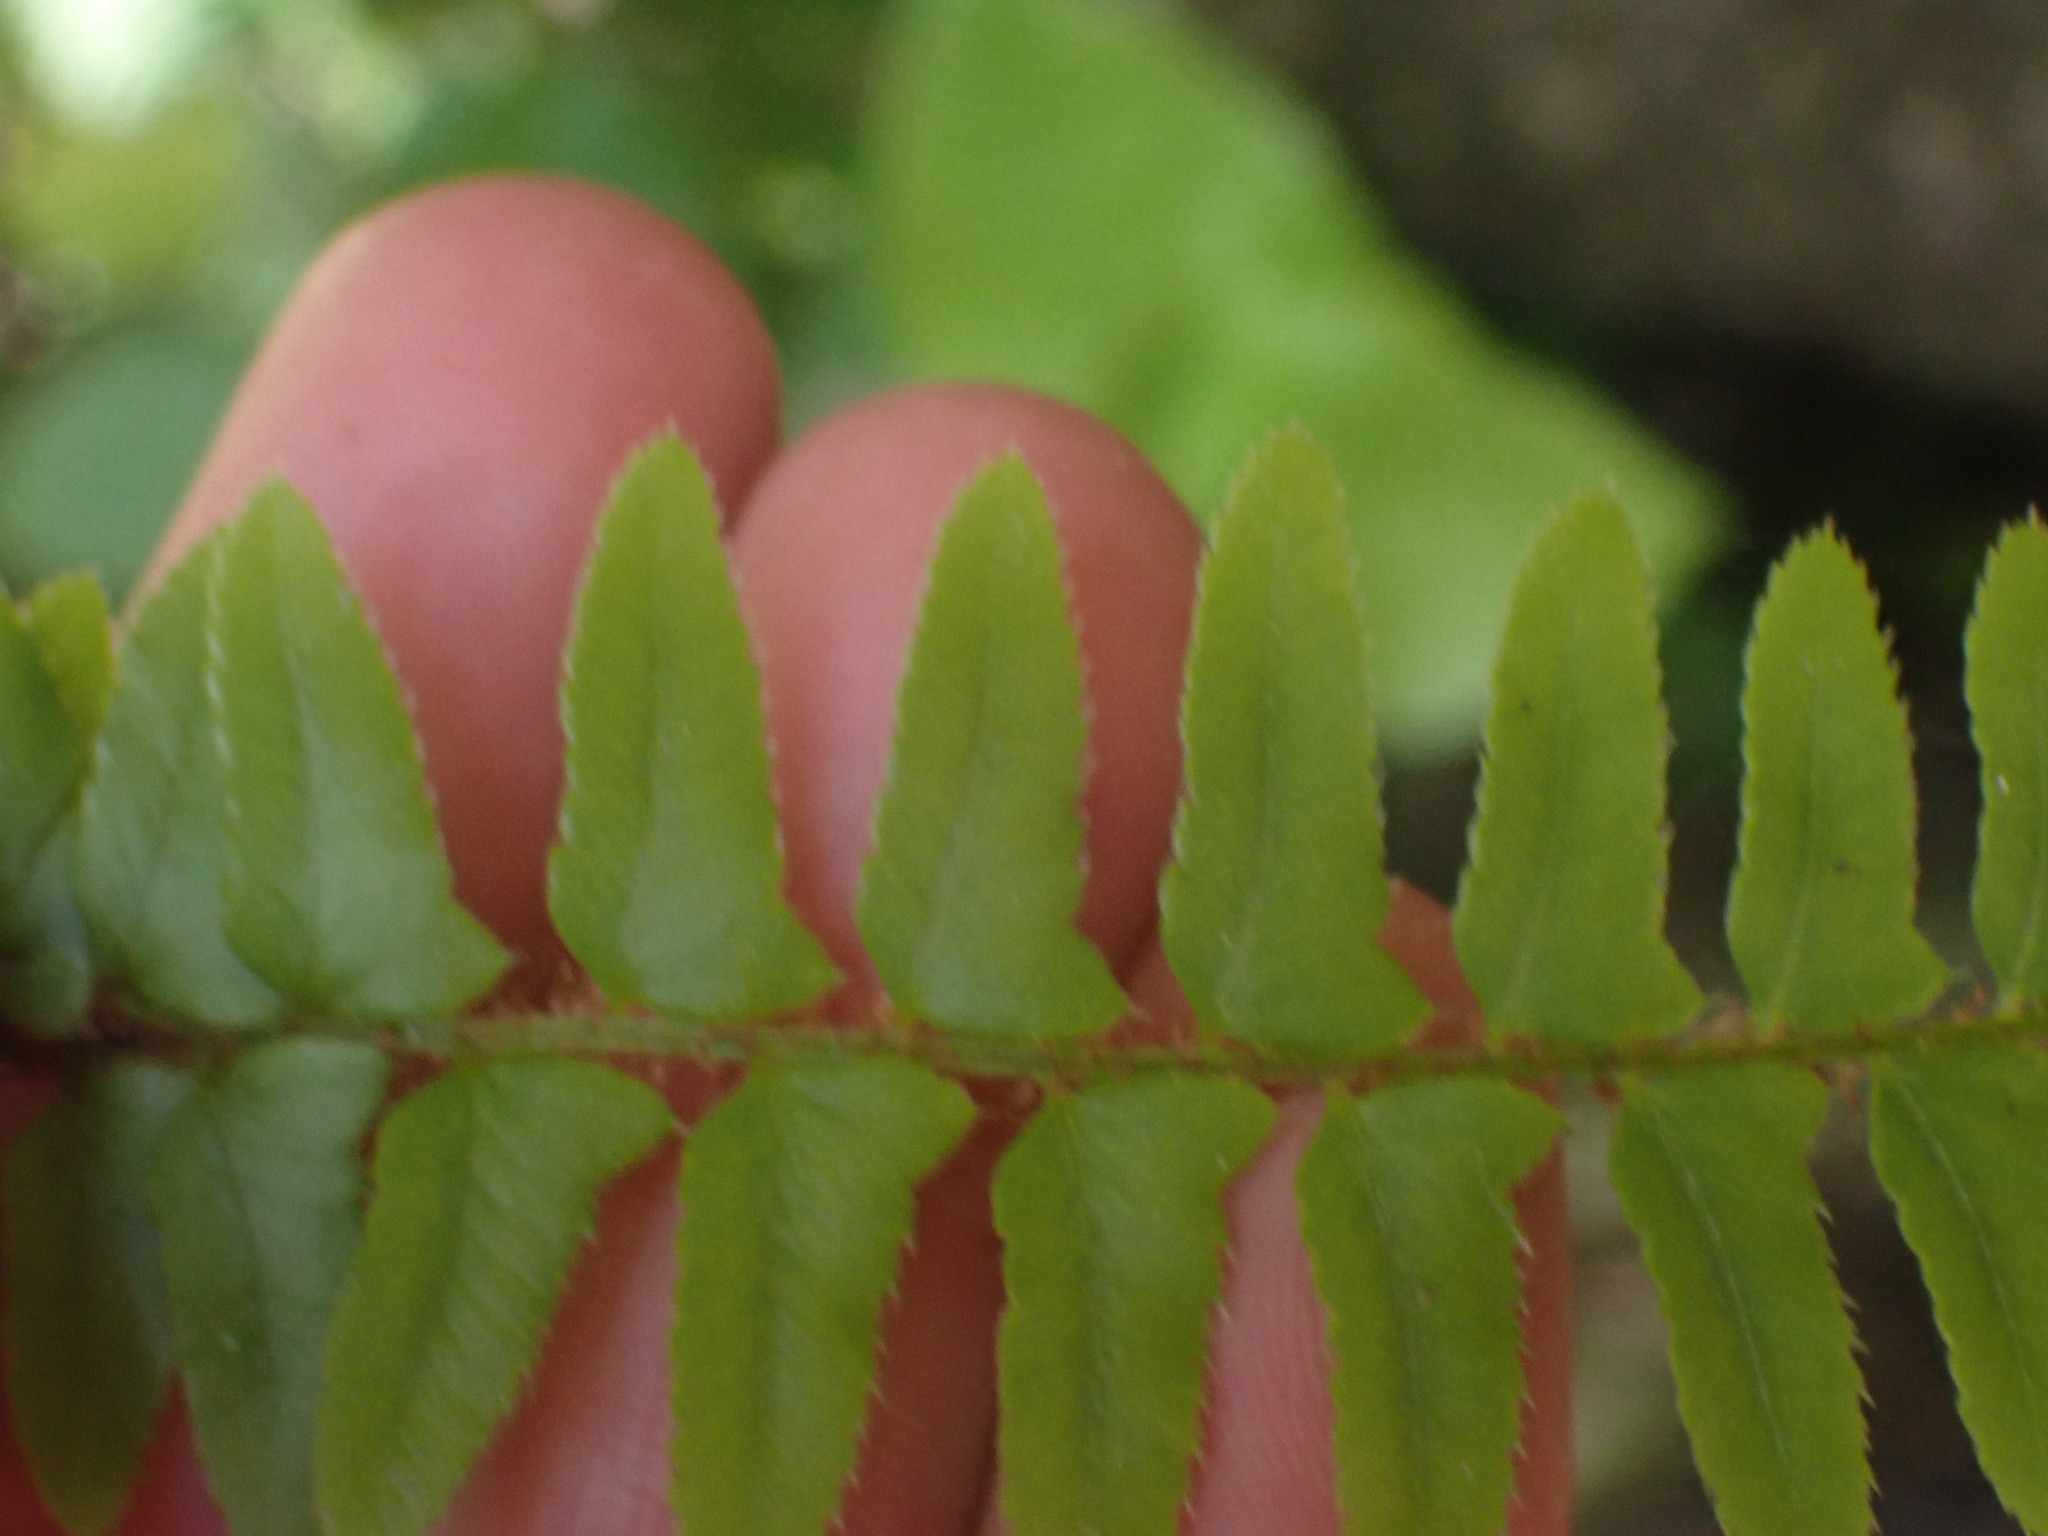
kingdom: Plantae
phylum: Tracheophyta
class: Polypodiopsida
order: Polypodiales
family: Dryopteridaceae
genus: Polystichum
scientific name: Polystichum munitum
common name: Western sword-fern
